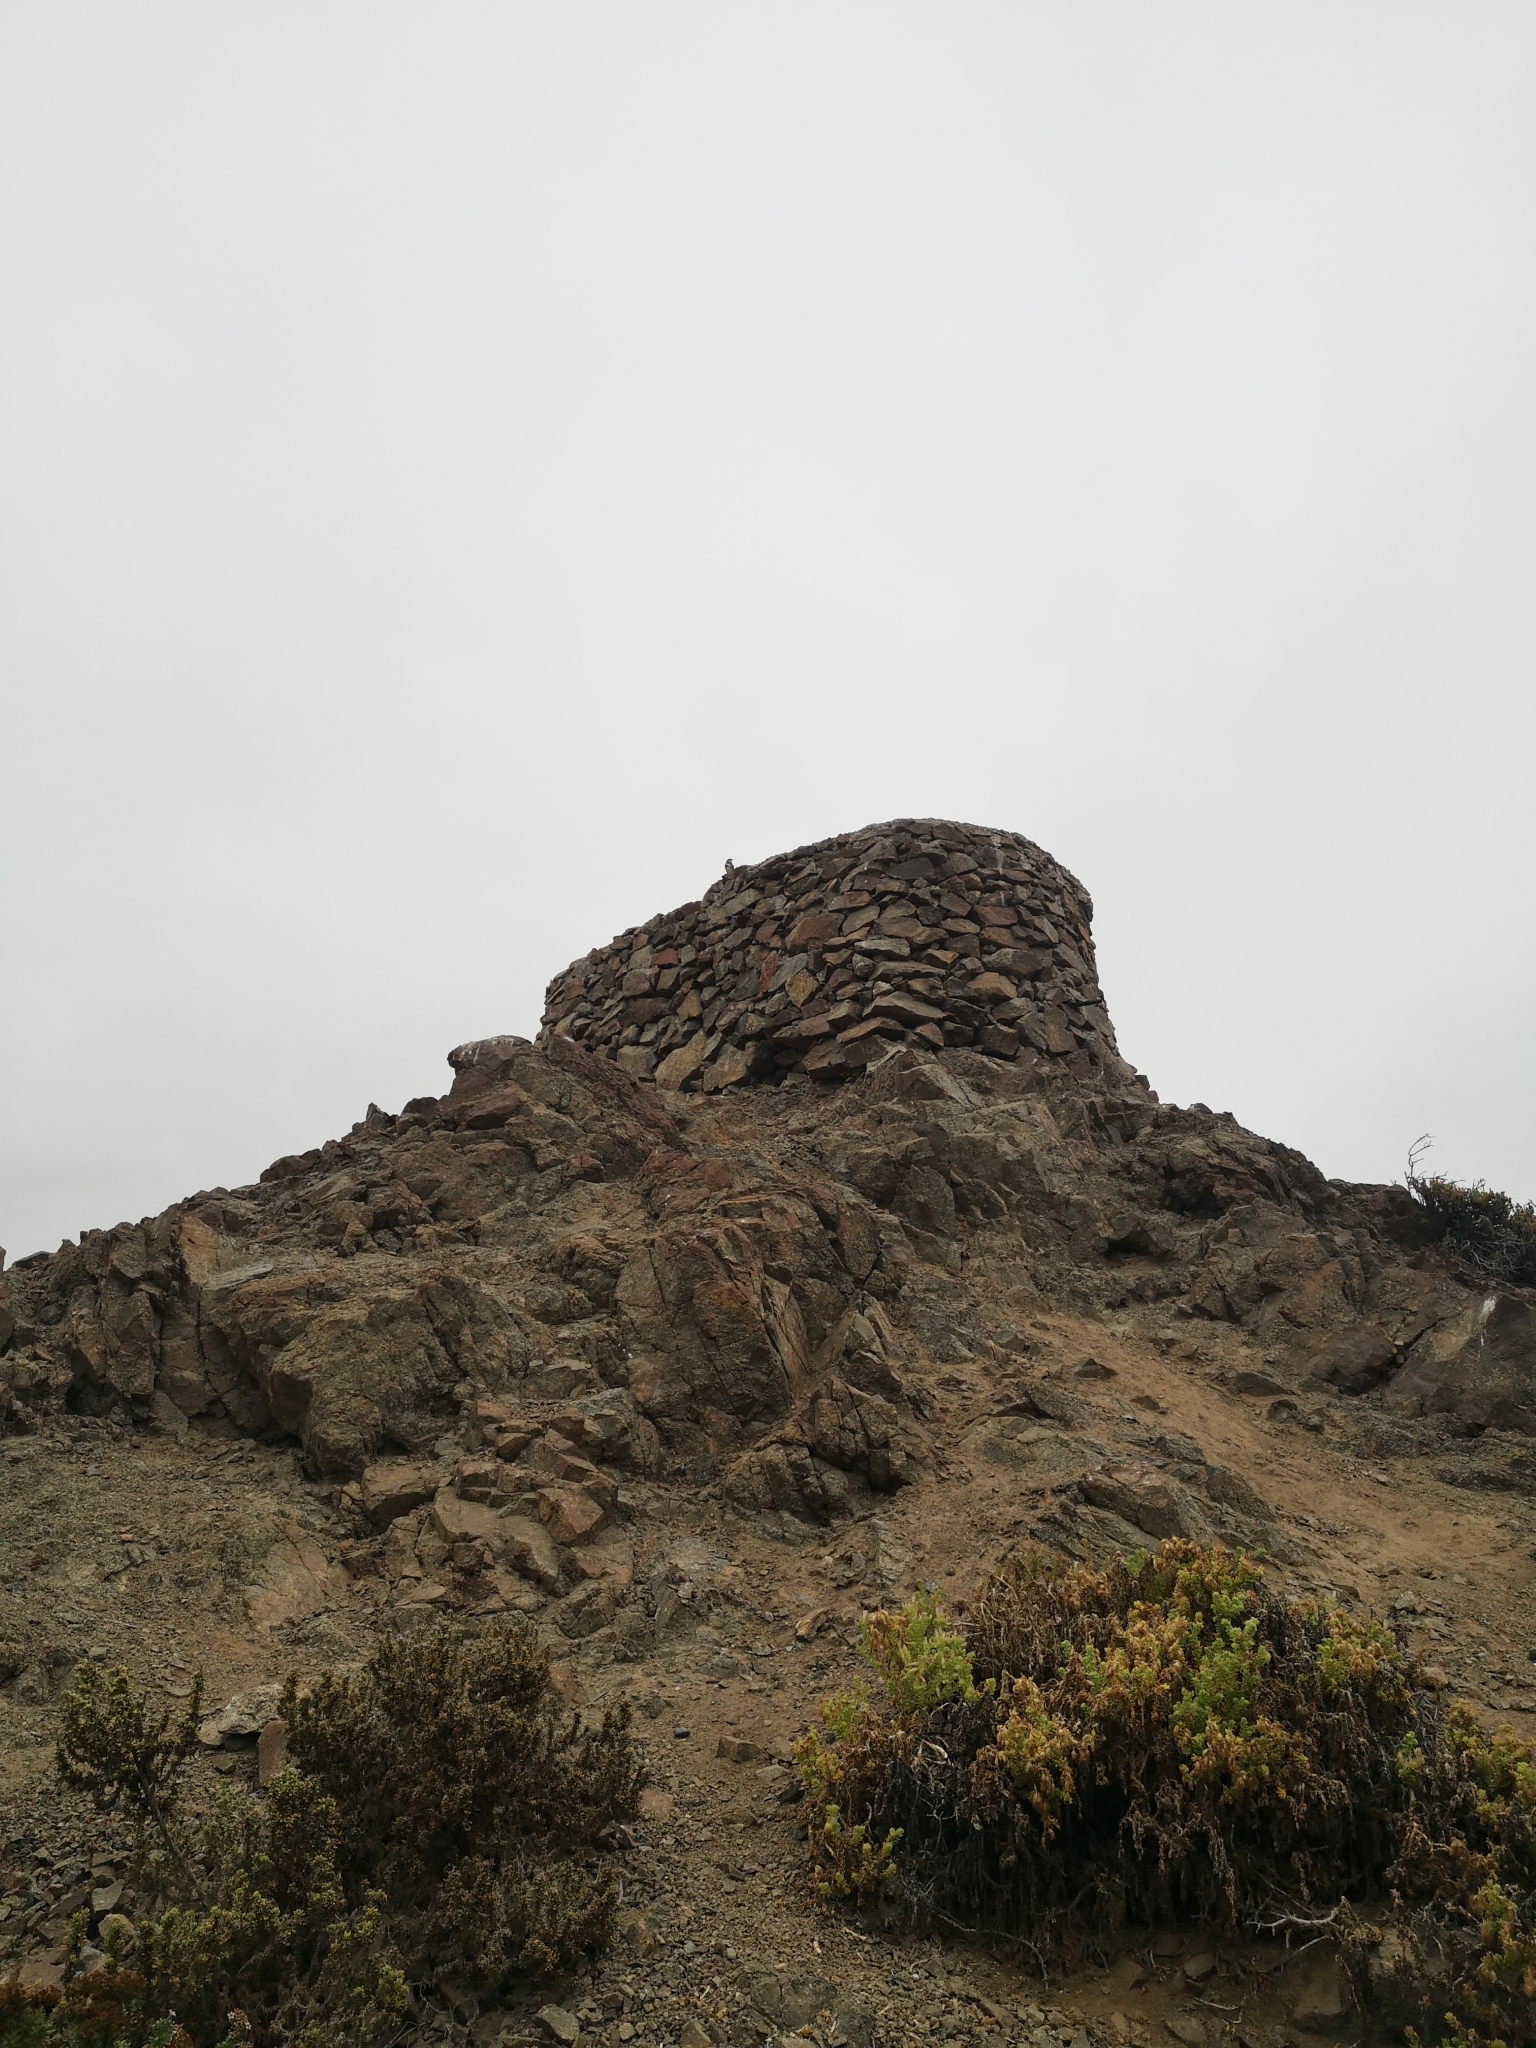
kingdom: Animalia
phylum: Chordata
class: Aves
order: Passeriformes
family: Thraupidae
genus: Diuca
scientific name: Diuca diuca
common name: Common diuca finch
